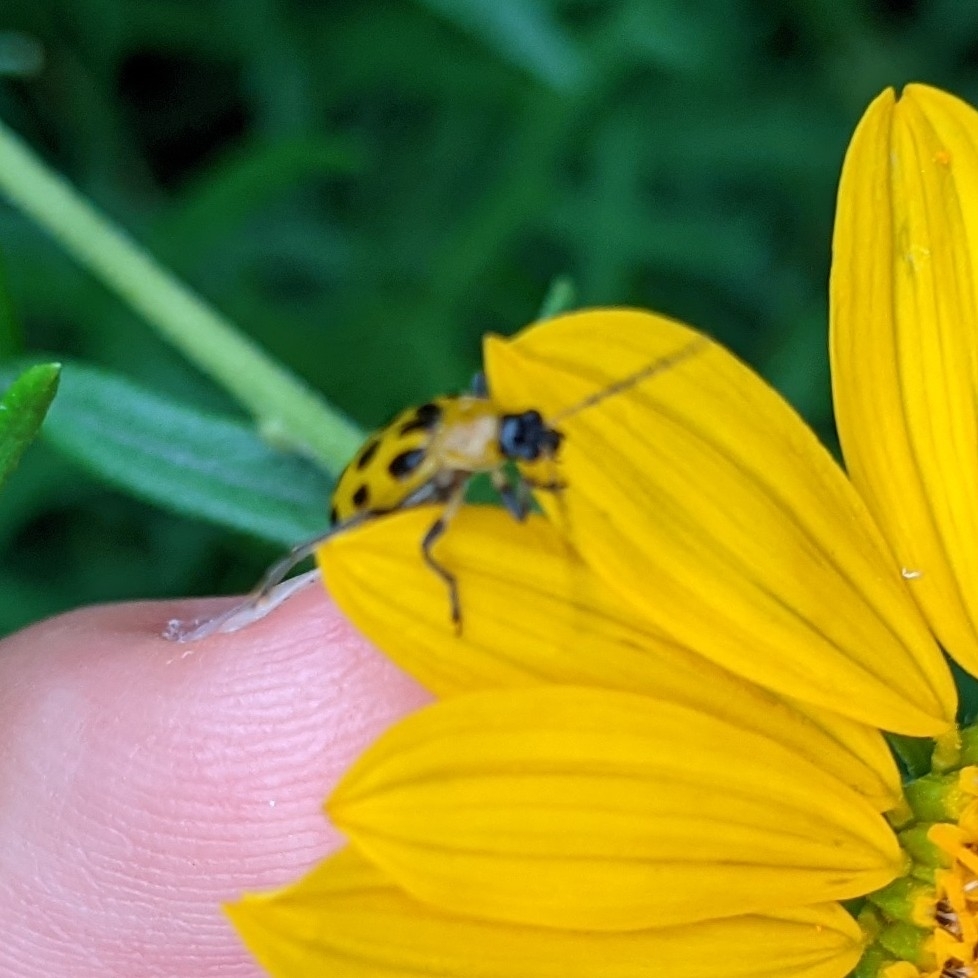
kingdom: Animalia
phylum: Arthropoda
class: Insecta
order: Coleoptera
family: Chrysomelidae
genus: Diabrotica
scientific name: Diabrotica undecimpunctata
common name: Spotted cucumber beetle
